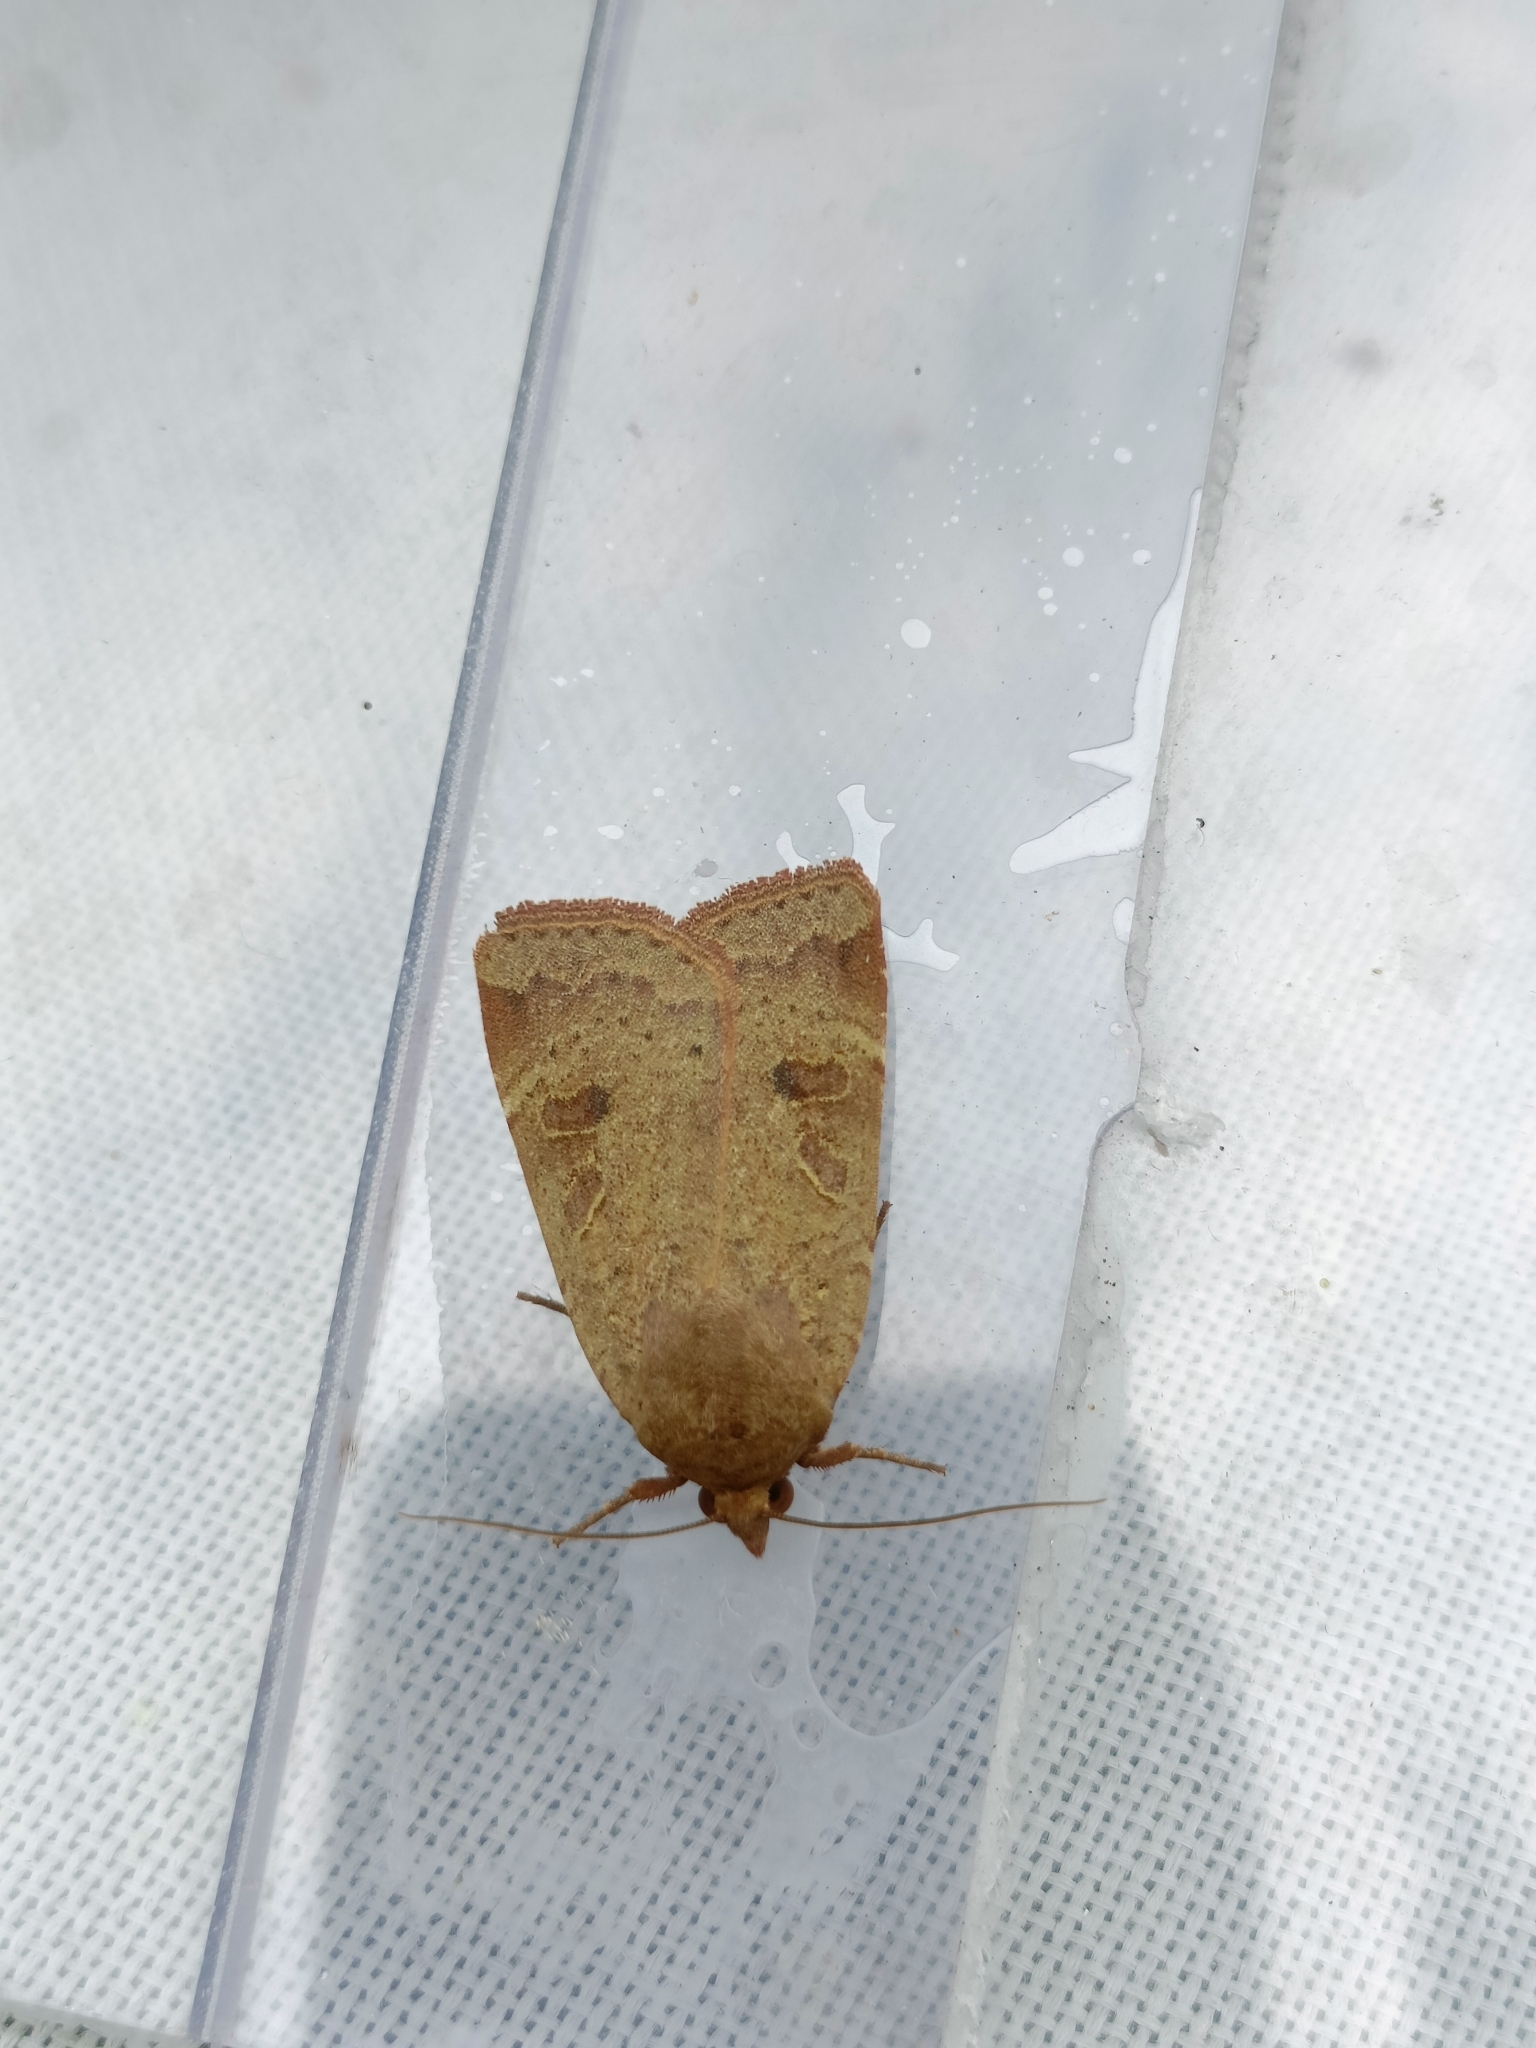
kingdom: Animalia
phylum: Arthropoda
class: Insecta
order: Lepidoptera
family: Noctuidae
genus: Noctua
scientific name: Noctua comes
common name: Lesser yellow underwing
